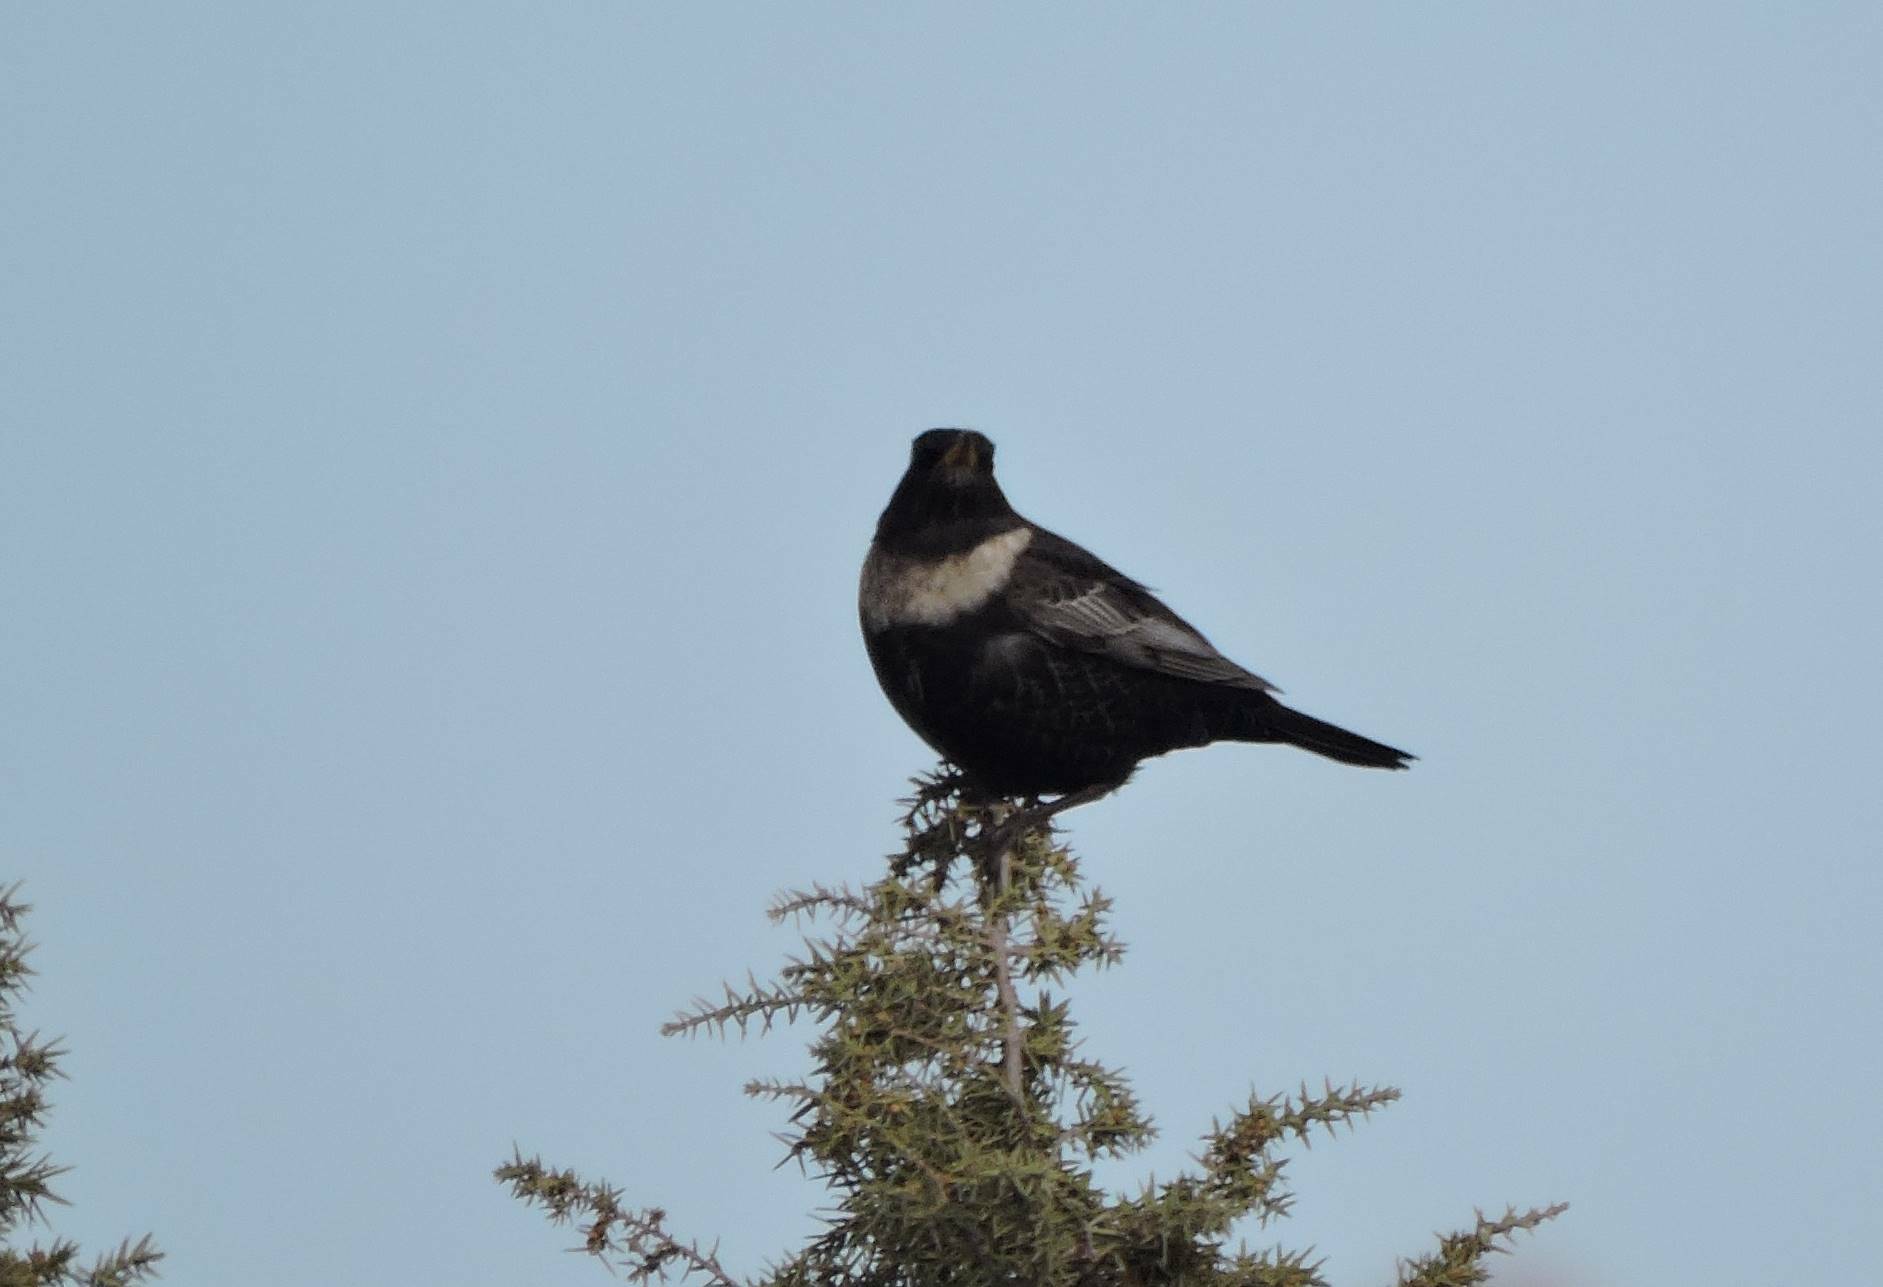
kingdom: Animalia
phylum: Chordata
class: Aves
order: Passeriformes
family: Turdidae
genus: Turdus
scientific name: Turdus torquatus
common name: Ring ouzel
